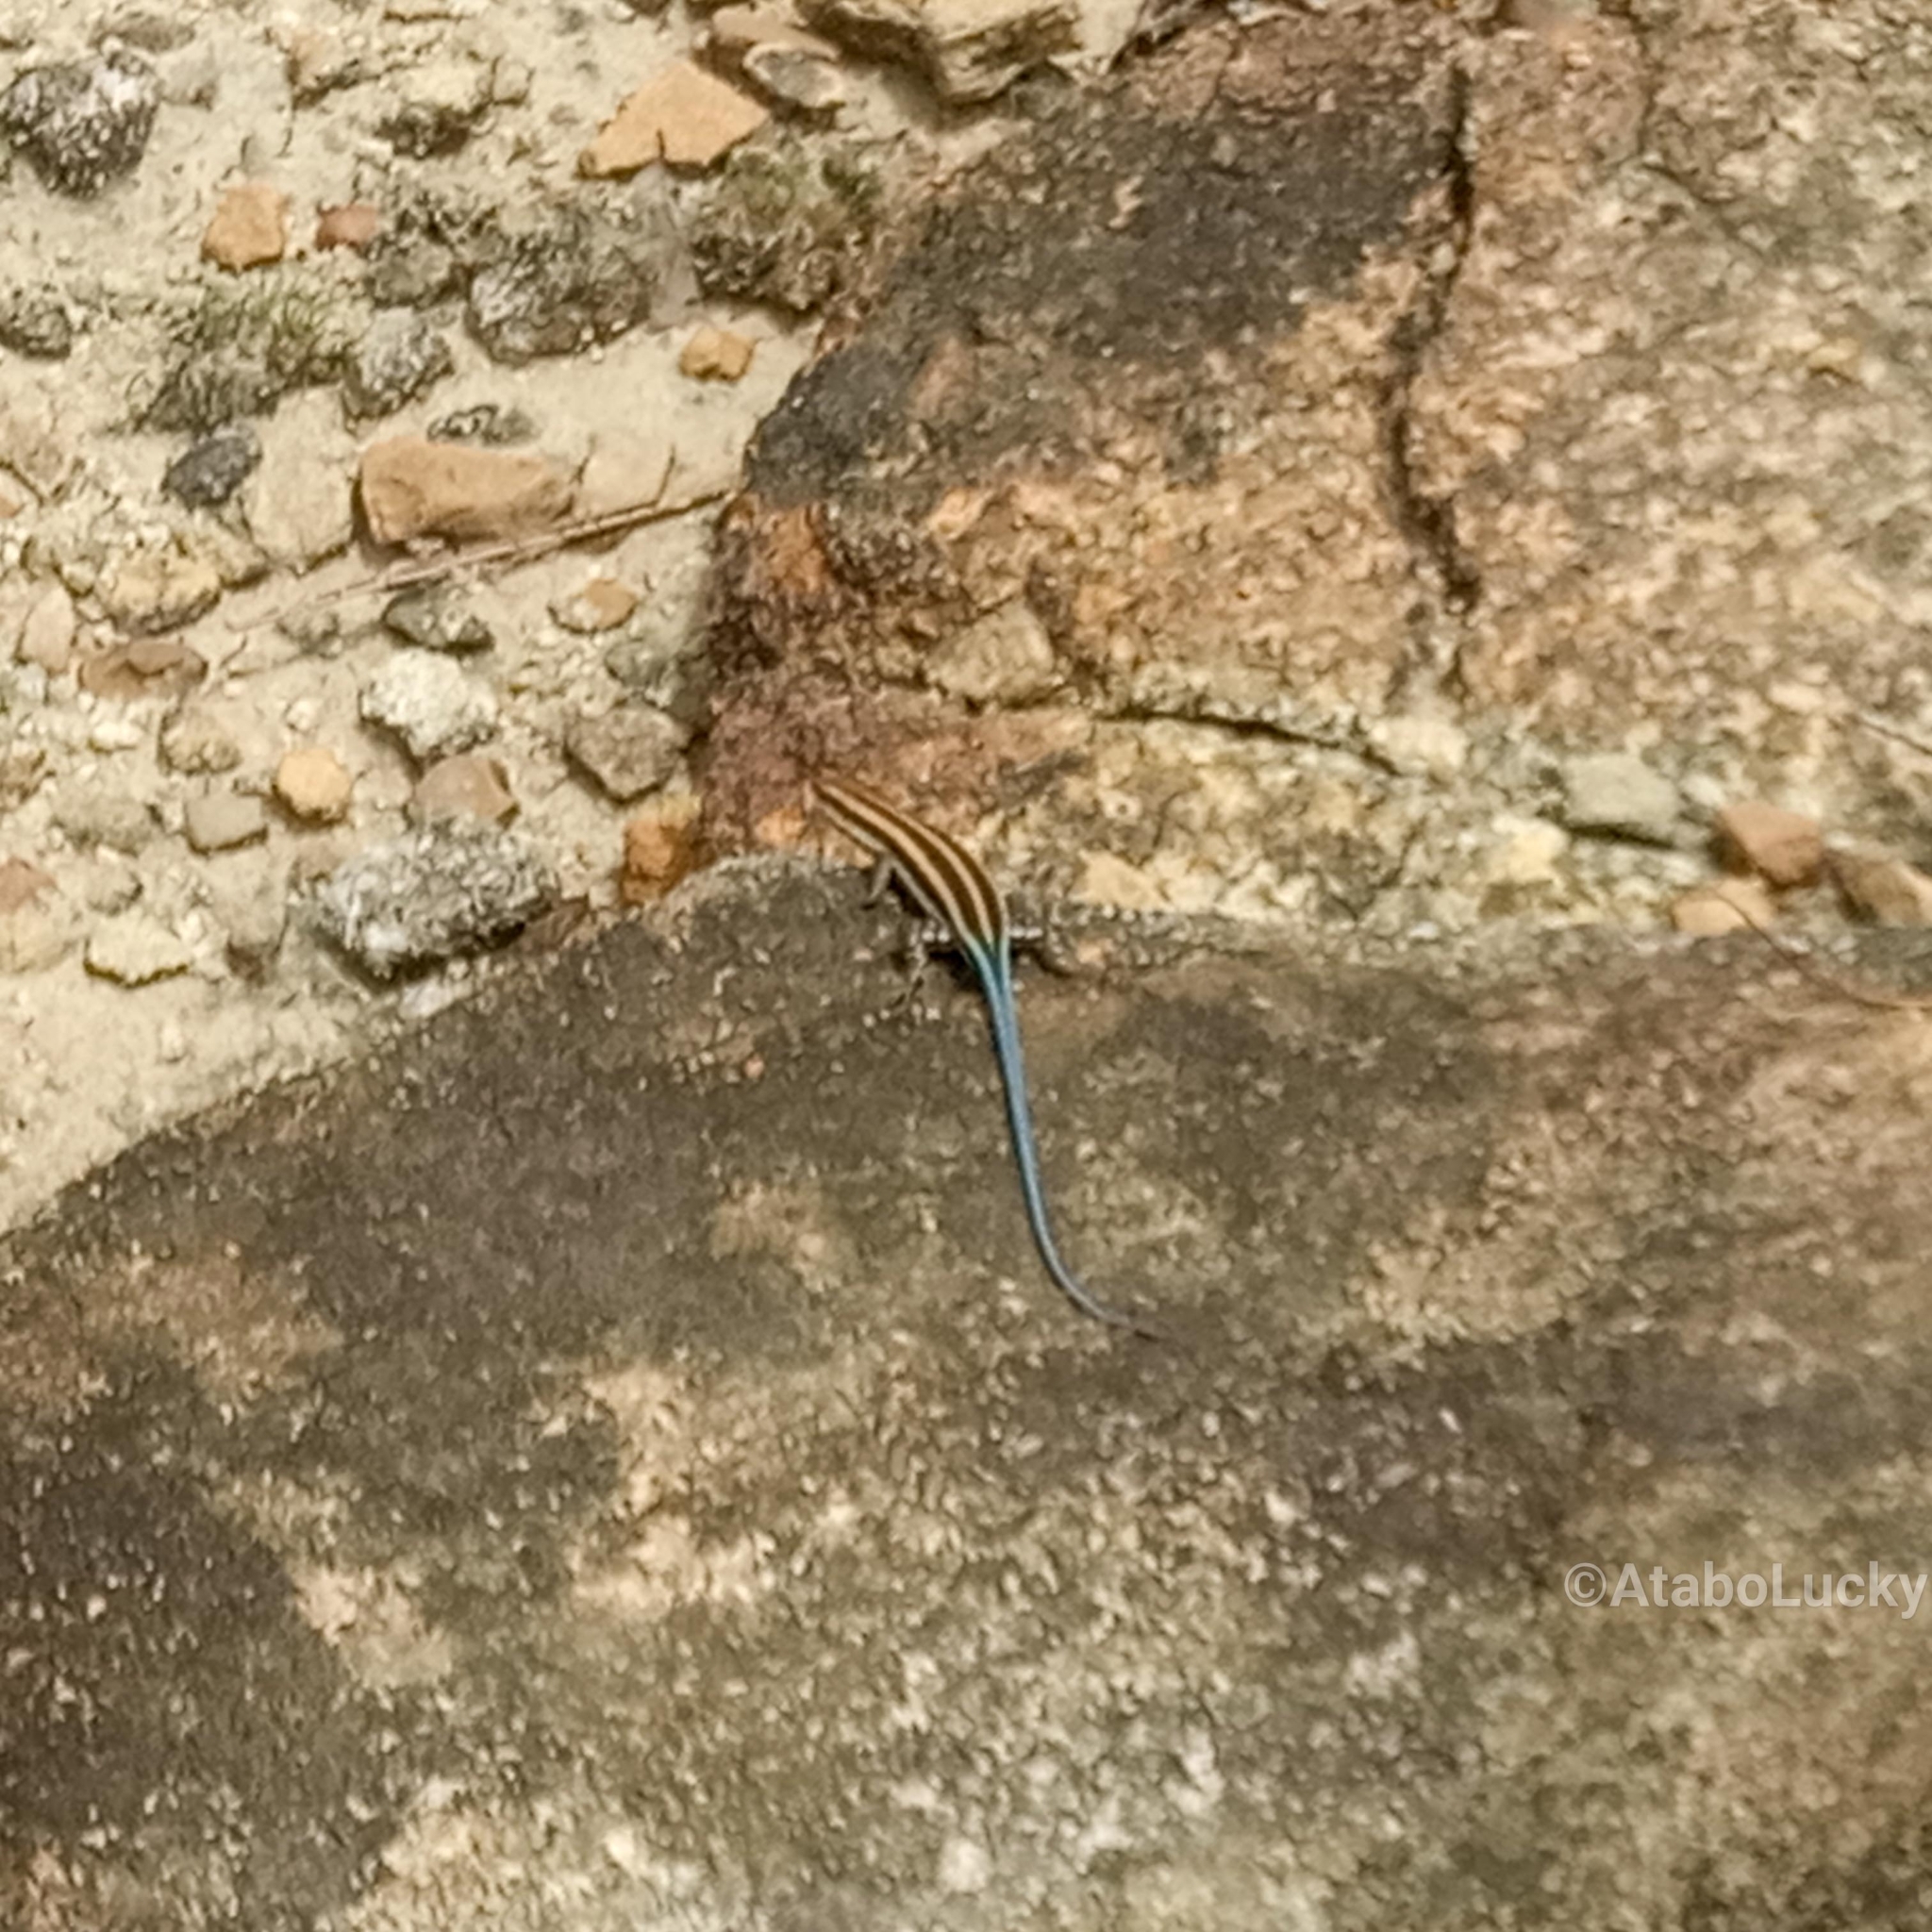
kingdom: Animalia
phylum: Chordata
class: Squamata
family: Scincidae
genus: Trachylepis
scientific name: Trachylepis quinquetaeniata
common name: African five-lined skink
